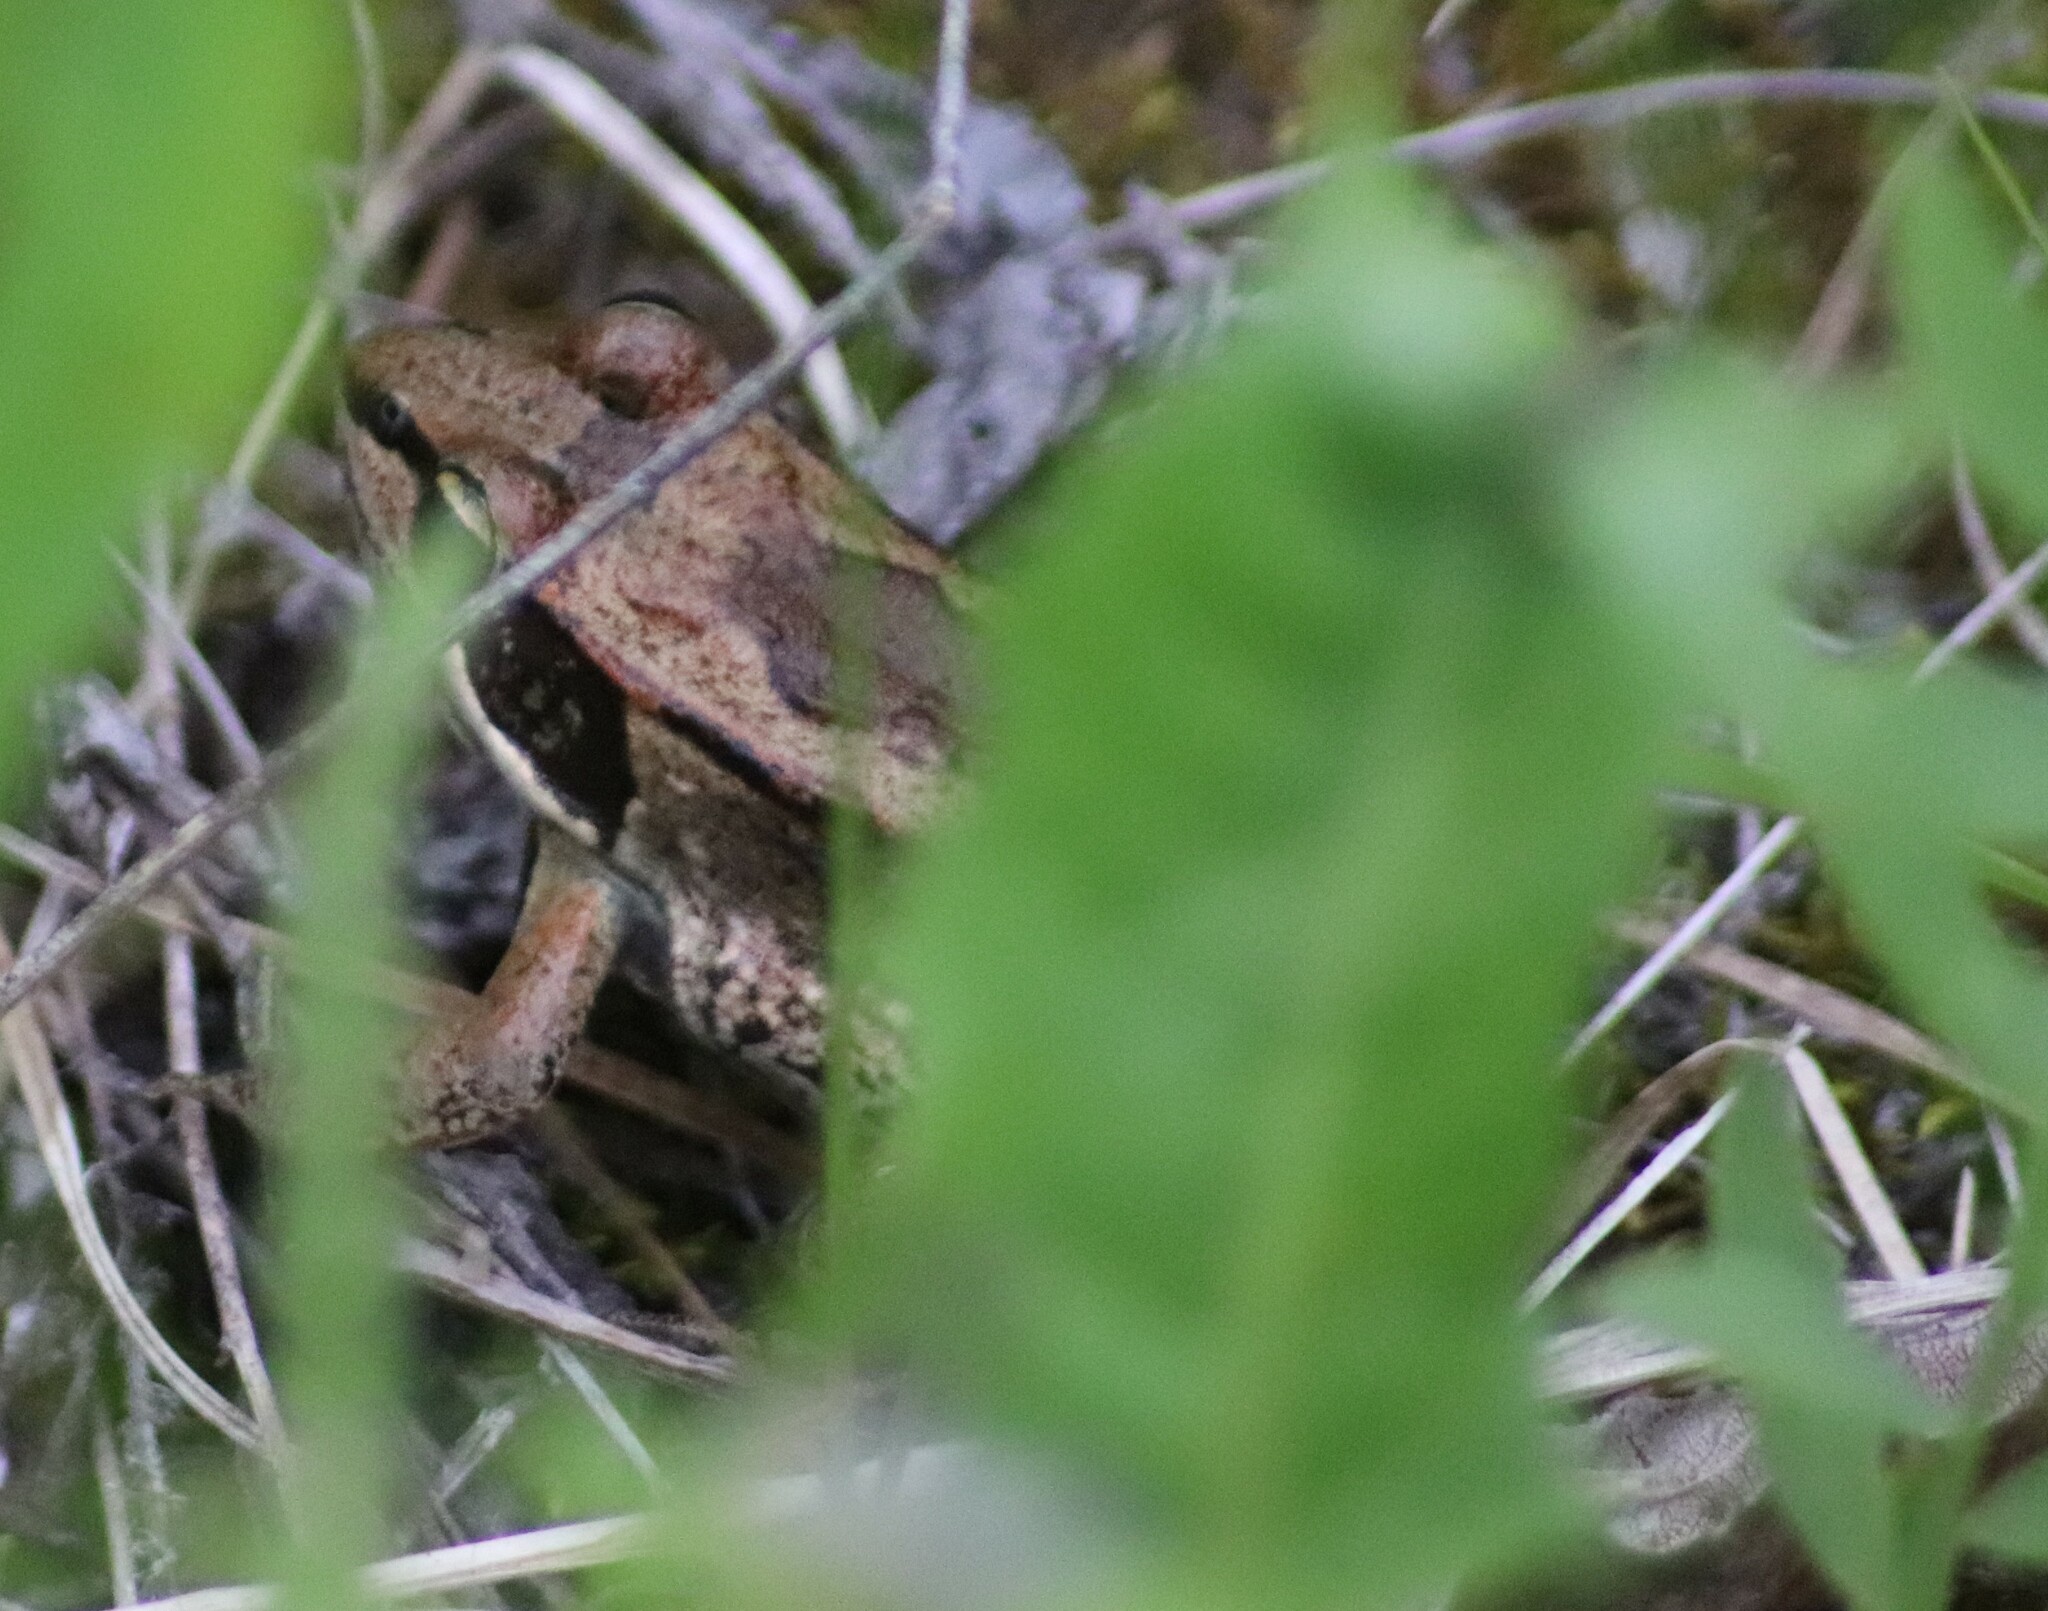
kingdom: Animalia
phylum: Chordata
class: Amphibia
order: Anura
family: Ranidae
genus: Lithobates
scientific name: Lithobates sylvaticus
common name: Wood frog
